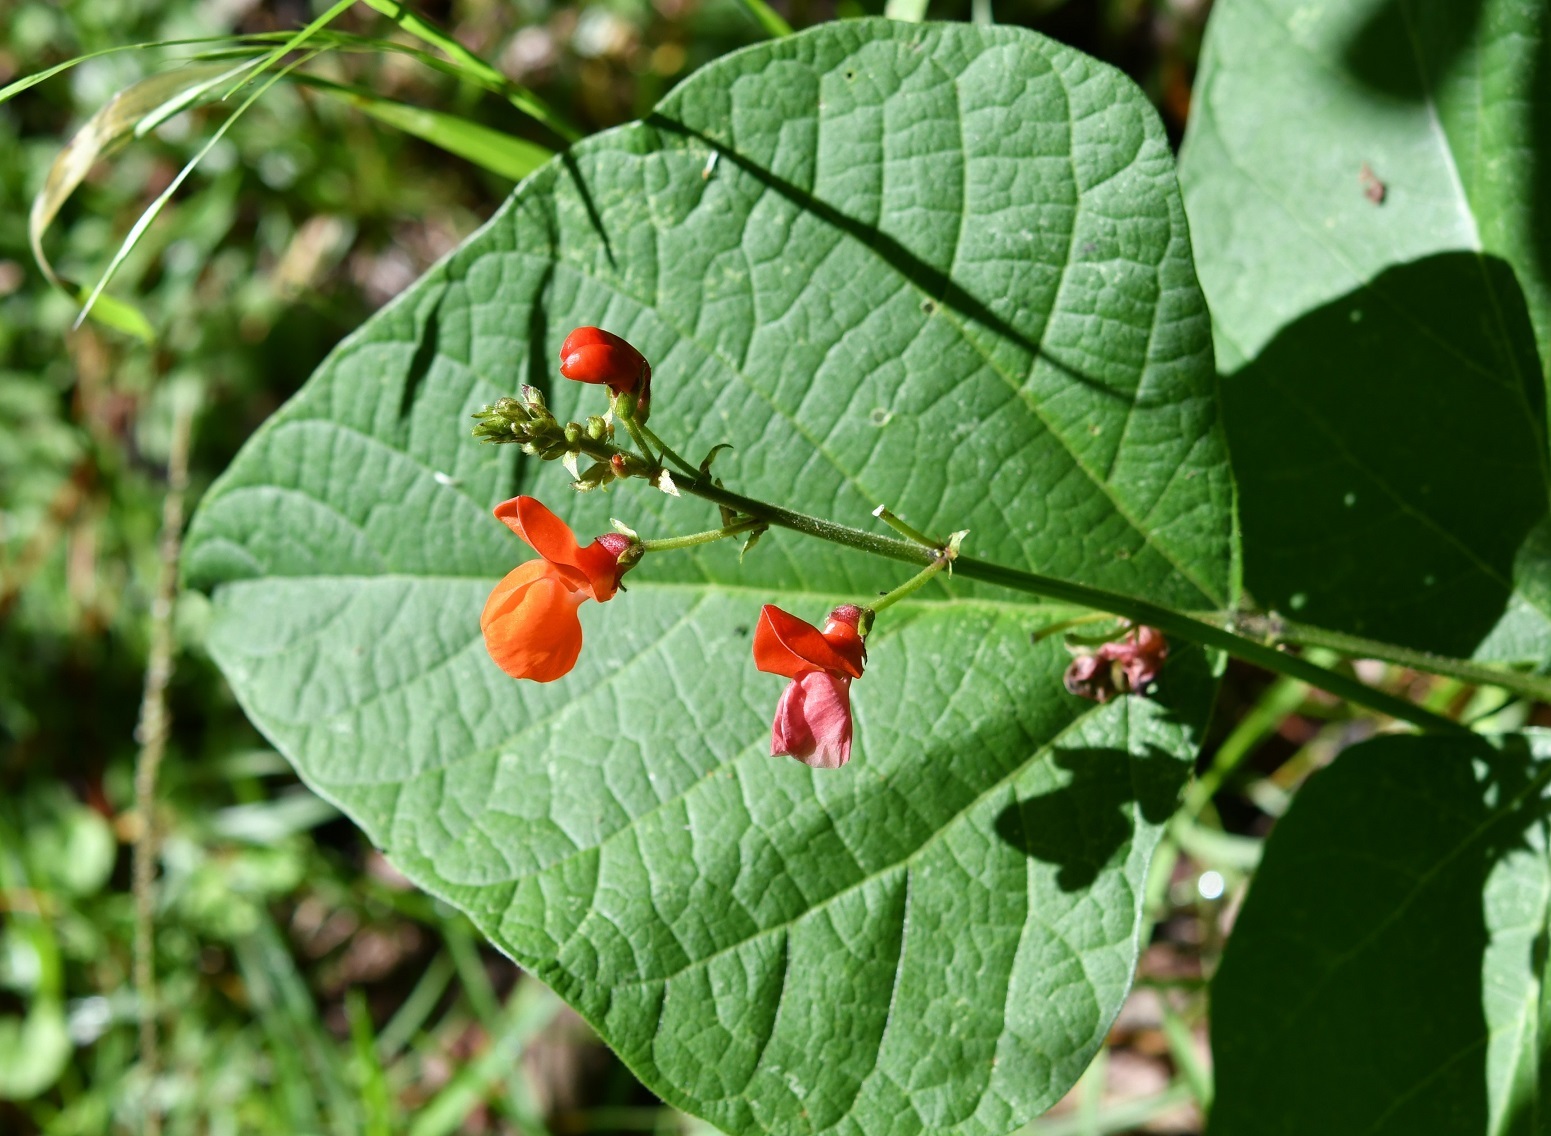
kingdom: Plantae
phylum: Tracheophyta
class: Magnoliopsida
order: Fabales
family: Fabaceae
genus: Phaseolus
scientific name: Phaseolus coccineus
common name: Runner bean
